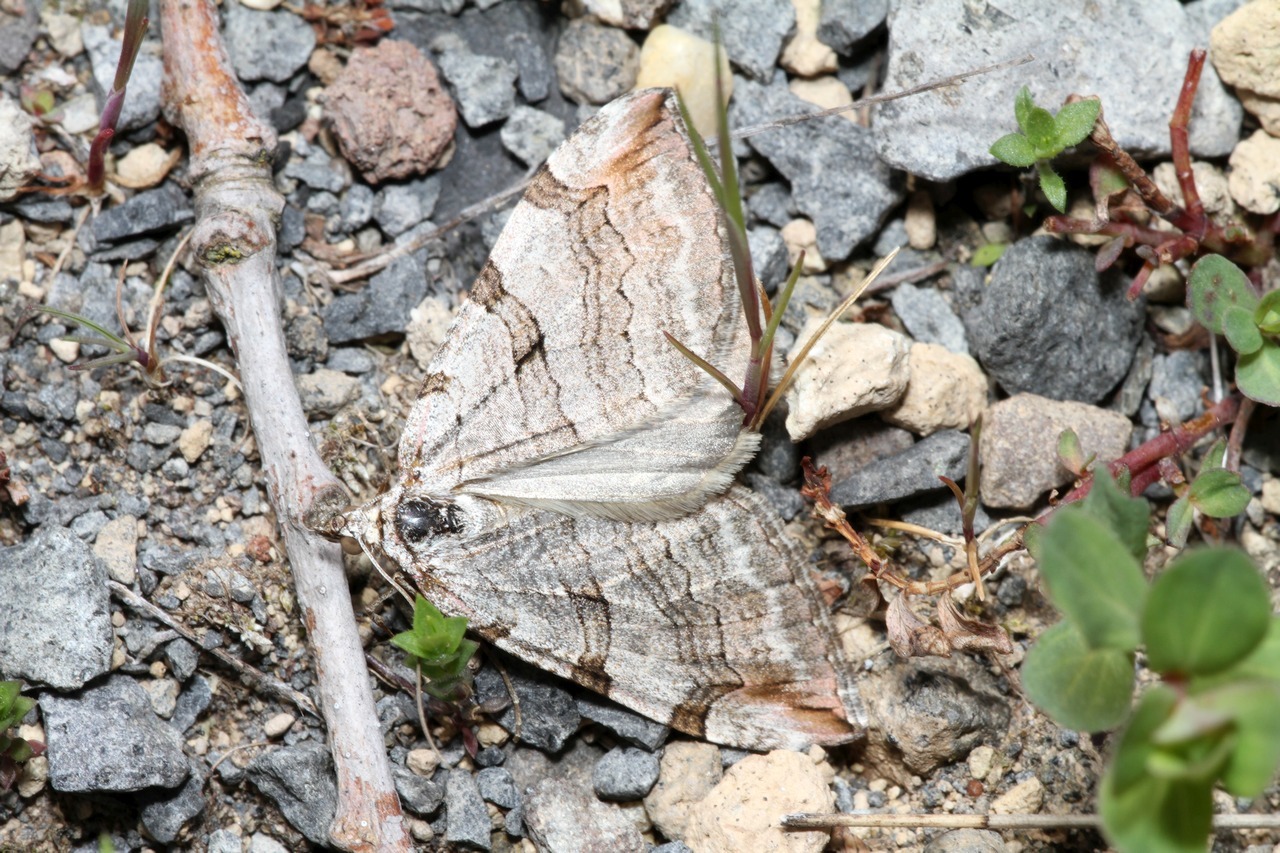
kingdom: Animalia
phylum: Arthropoda
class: Insecta
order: Lepidoptera
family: Geometridae
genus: Aplocera
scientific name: Aplocera plagiata
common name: Treble-bar
